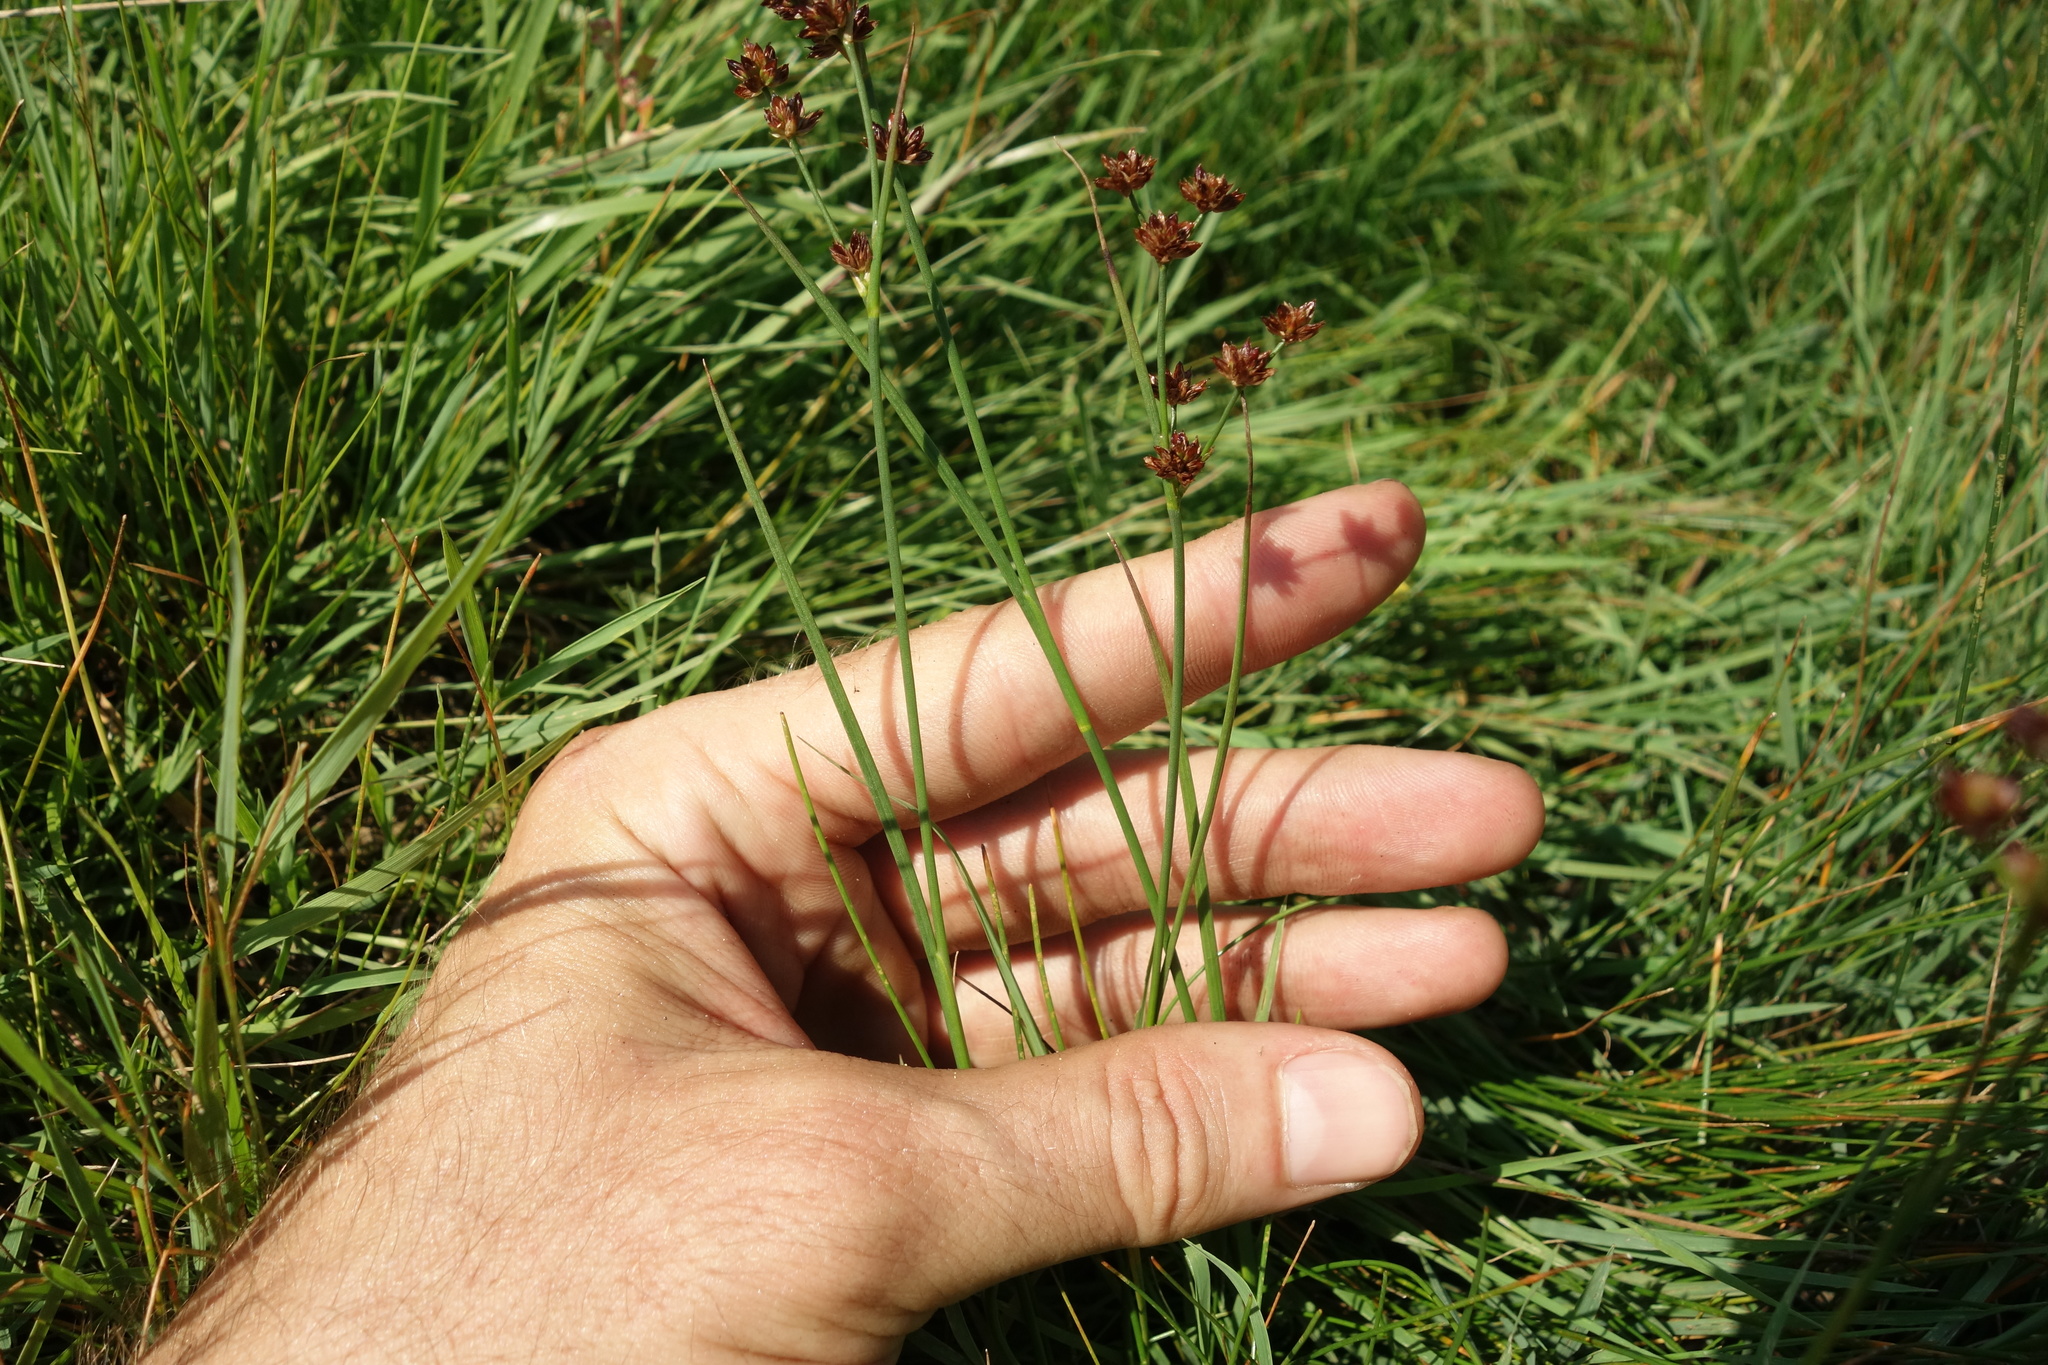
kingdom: Plantae
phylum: Tracheophyta
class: Liliopsida
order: Poales
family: Juncaceae
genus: Juncus
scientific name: Juncus articulatus
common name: Jointed rush
